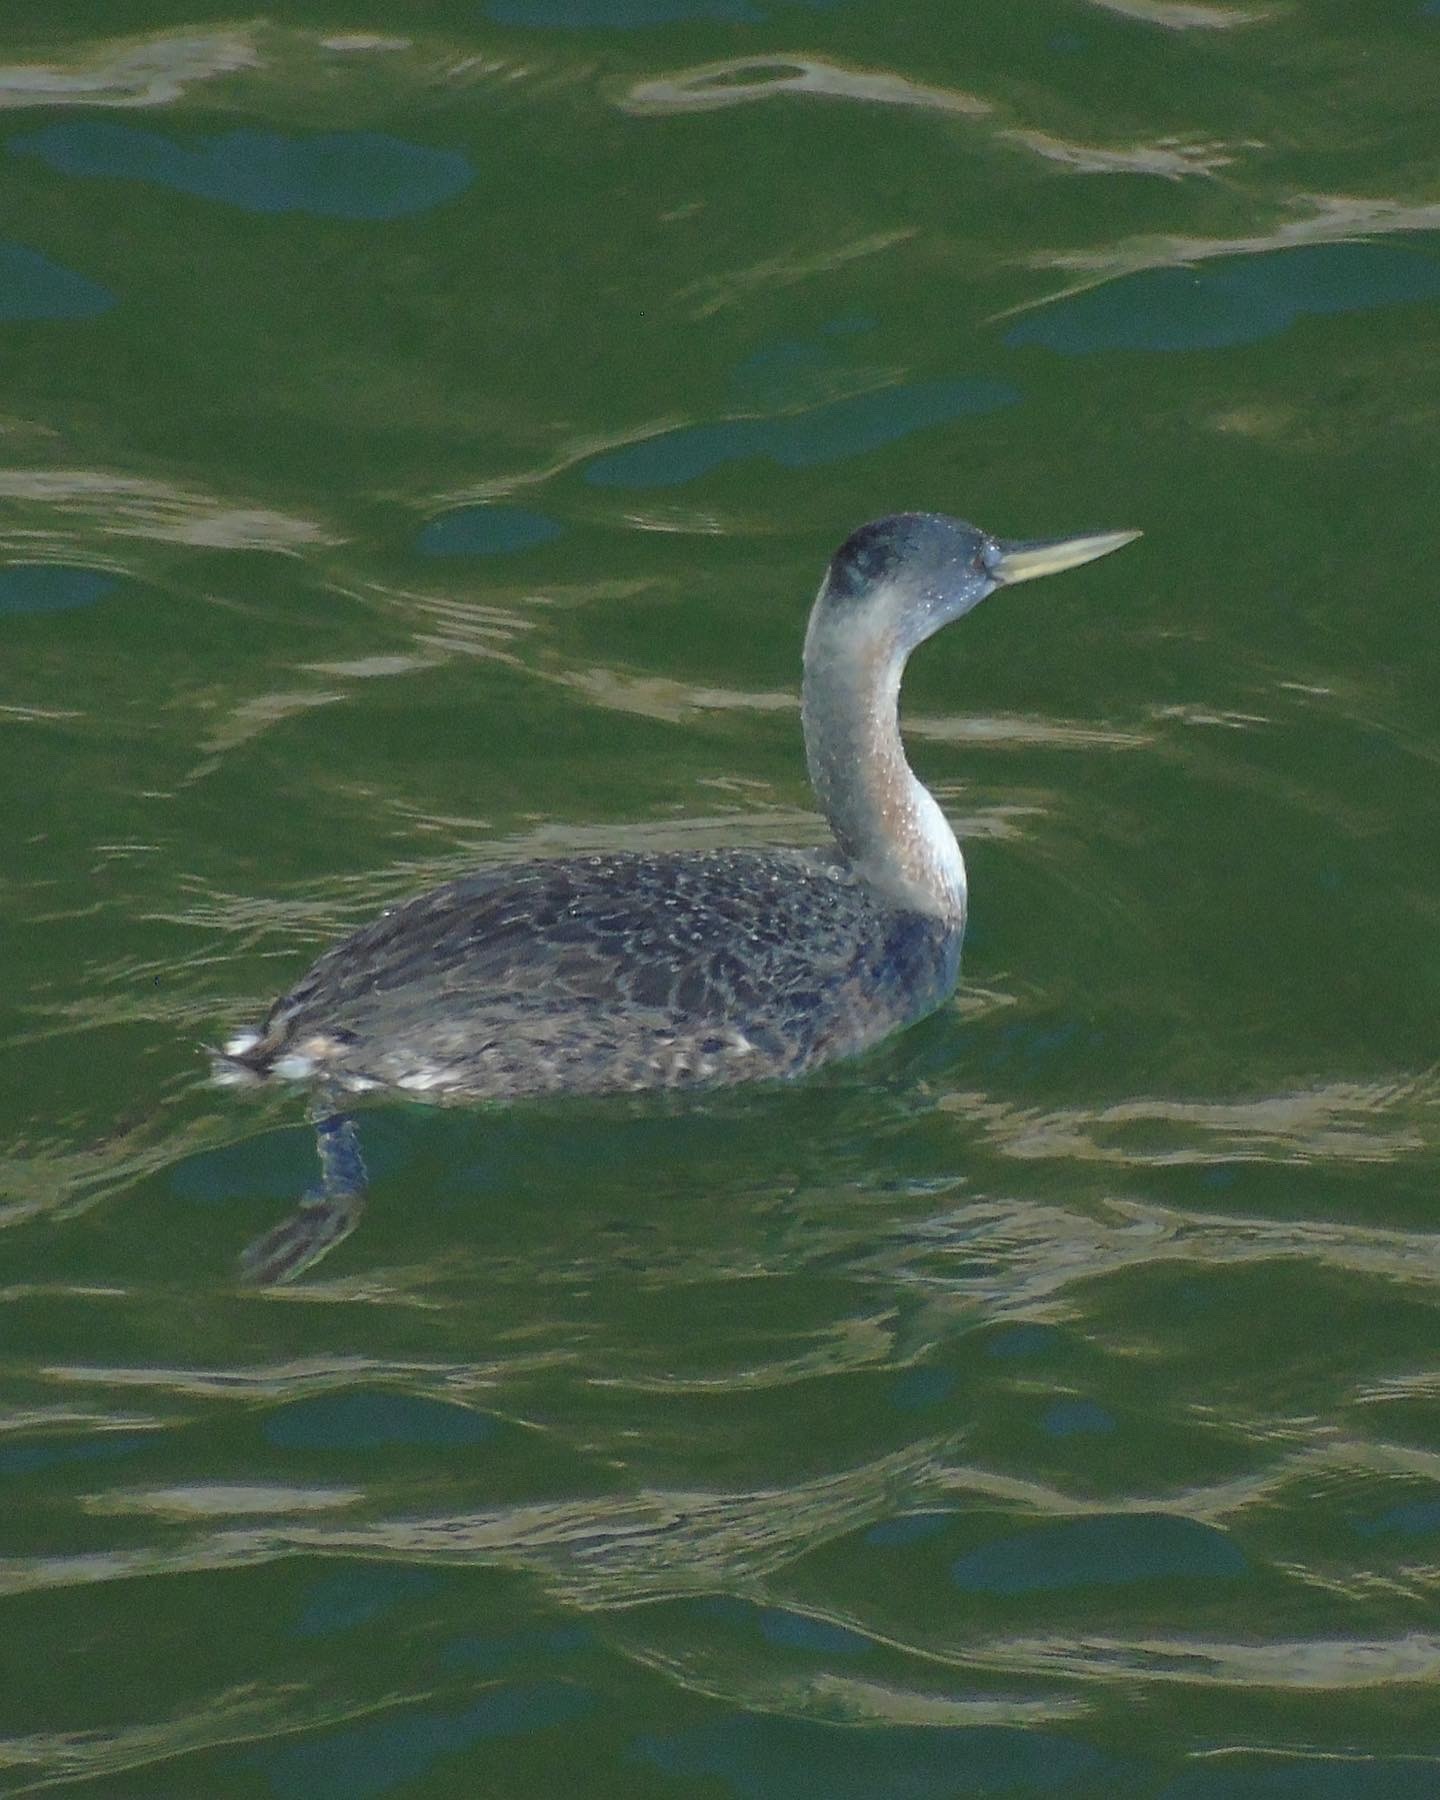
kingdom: Animalia
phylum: Chordata
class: Aves
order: Podicipediformes
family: Podicipedidae
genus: Podiceps
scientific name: Podiceps major
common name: Great grebe
